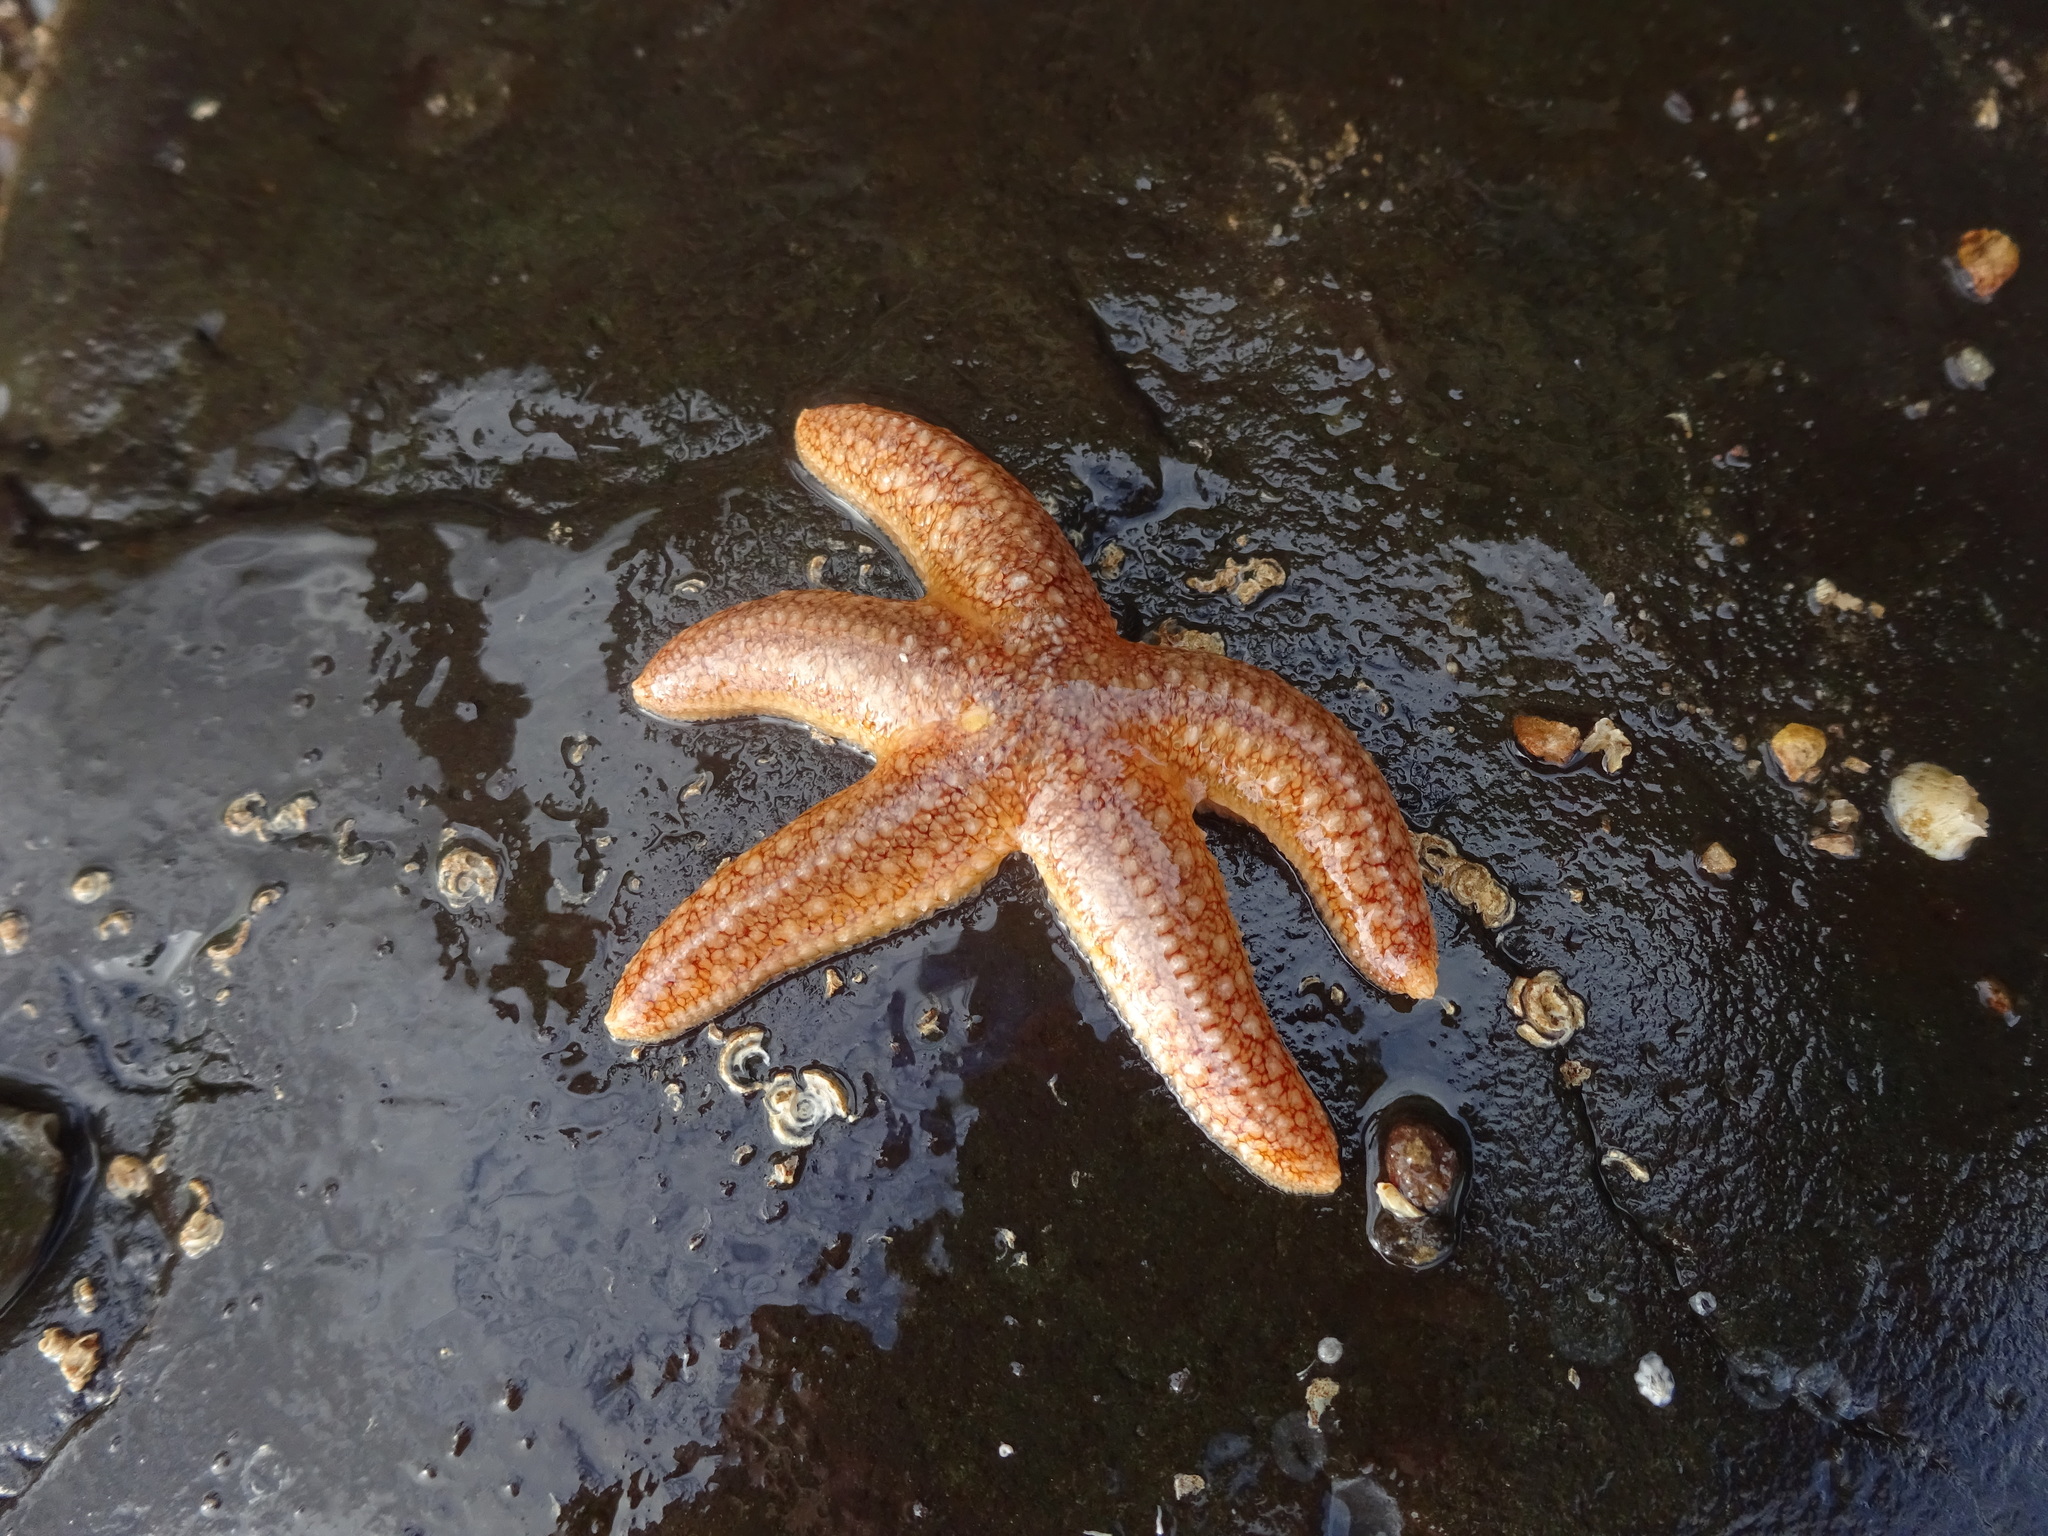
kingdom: Animalia
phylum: Echinodermata
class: Asteroidea
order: Forcipulatida
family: Asteriidae
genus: Asterias
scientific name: Asterias rubens
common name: Common starfish
